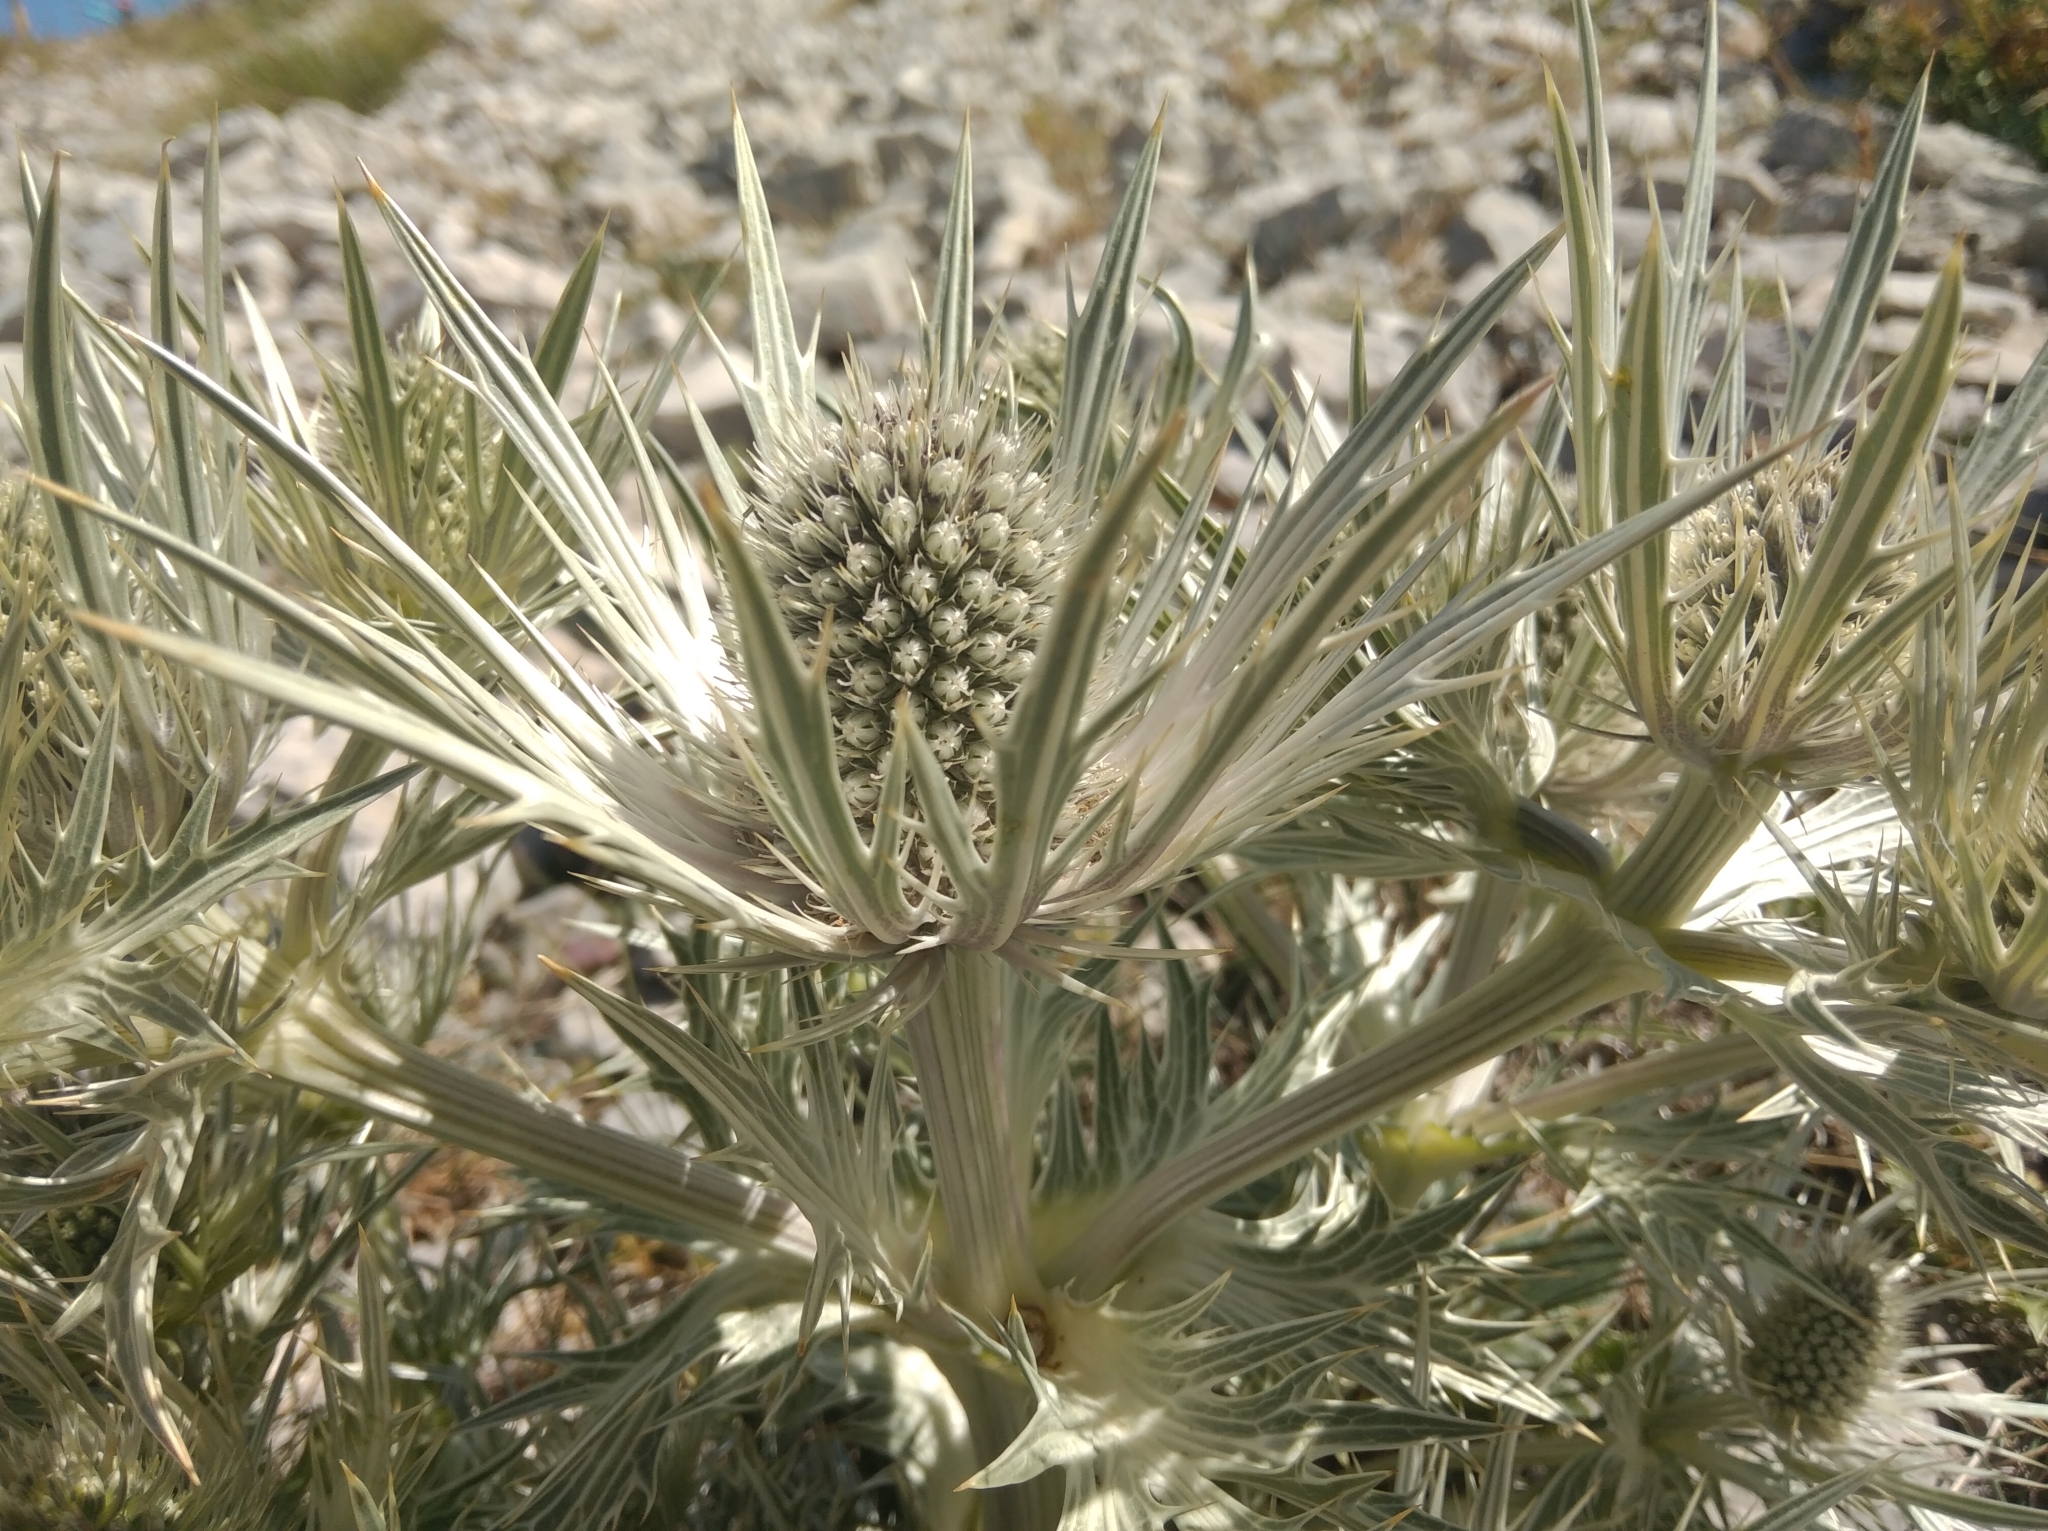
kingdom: Plantae
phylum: Tracheophyta
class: Magnoliopsida
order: Apiales
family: Apiaceae
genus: Eryngium
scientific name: Eryngium spinalba
